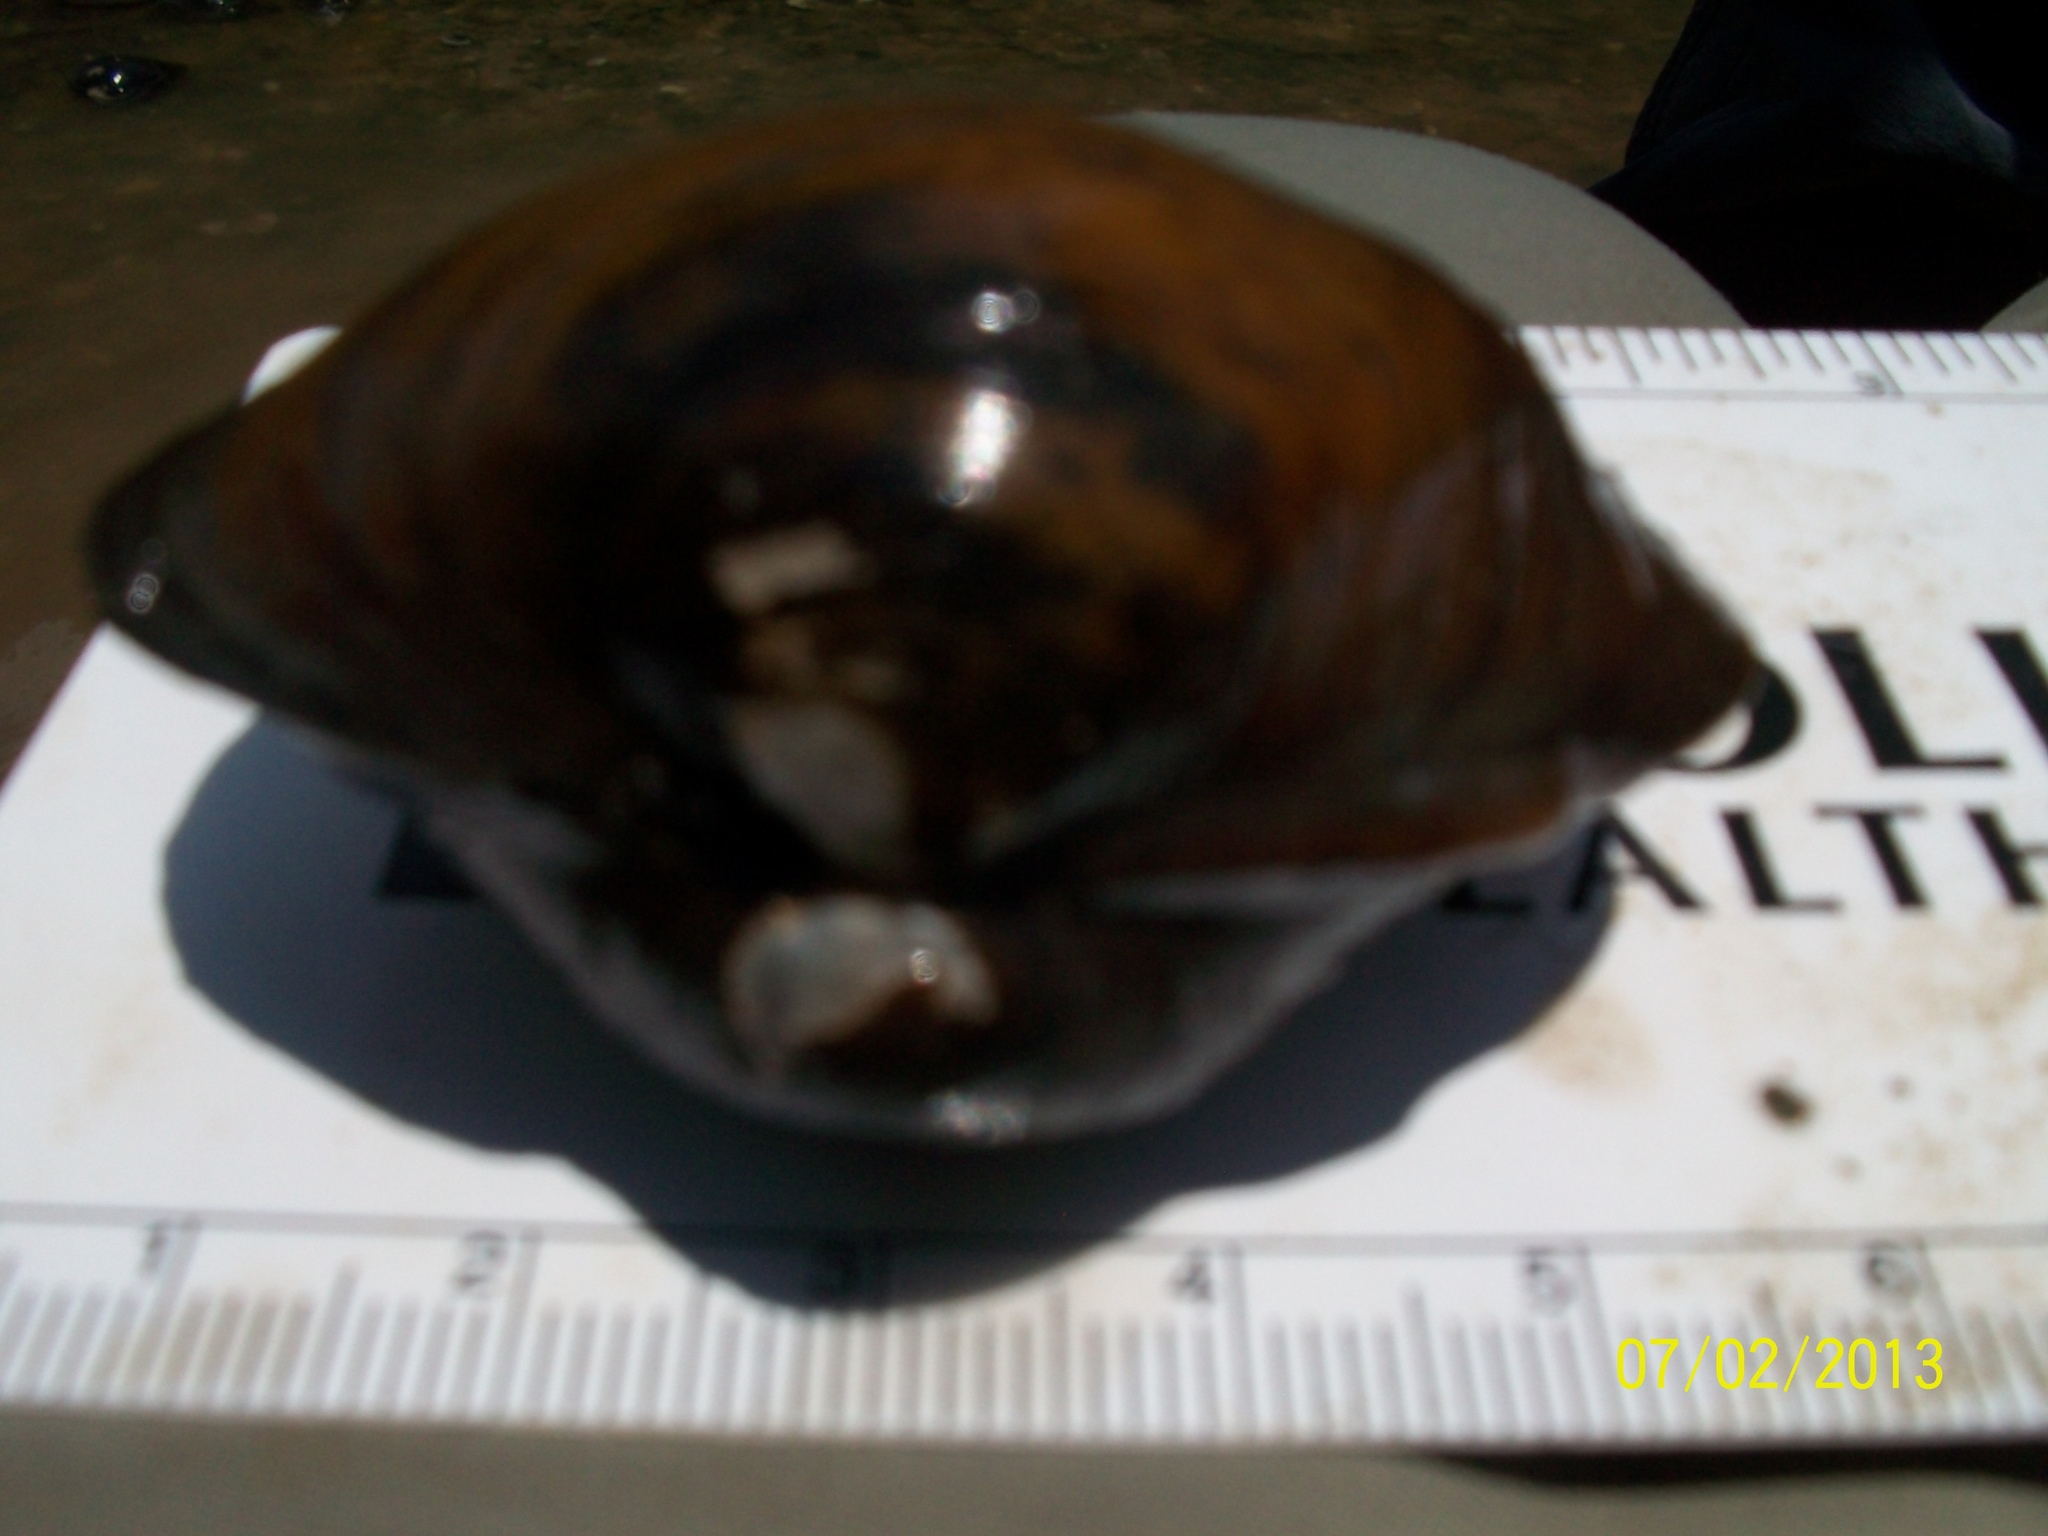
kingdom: Animalia
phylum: Mollusca
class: Bivalvia
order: Unionida
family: Unionidae
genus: Cyclonaias
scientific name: Cyclonaias pustulosa
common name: Pimpleback
